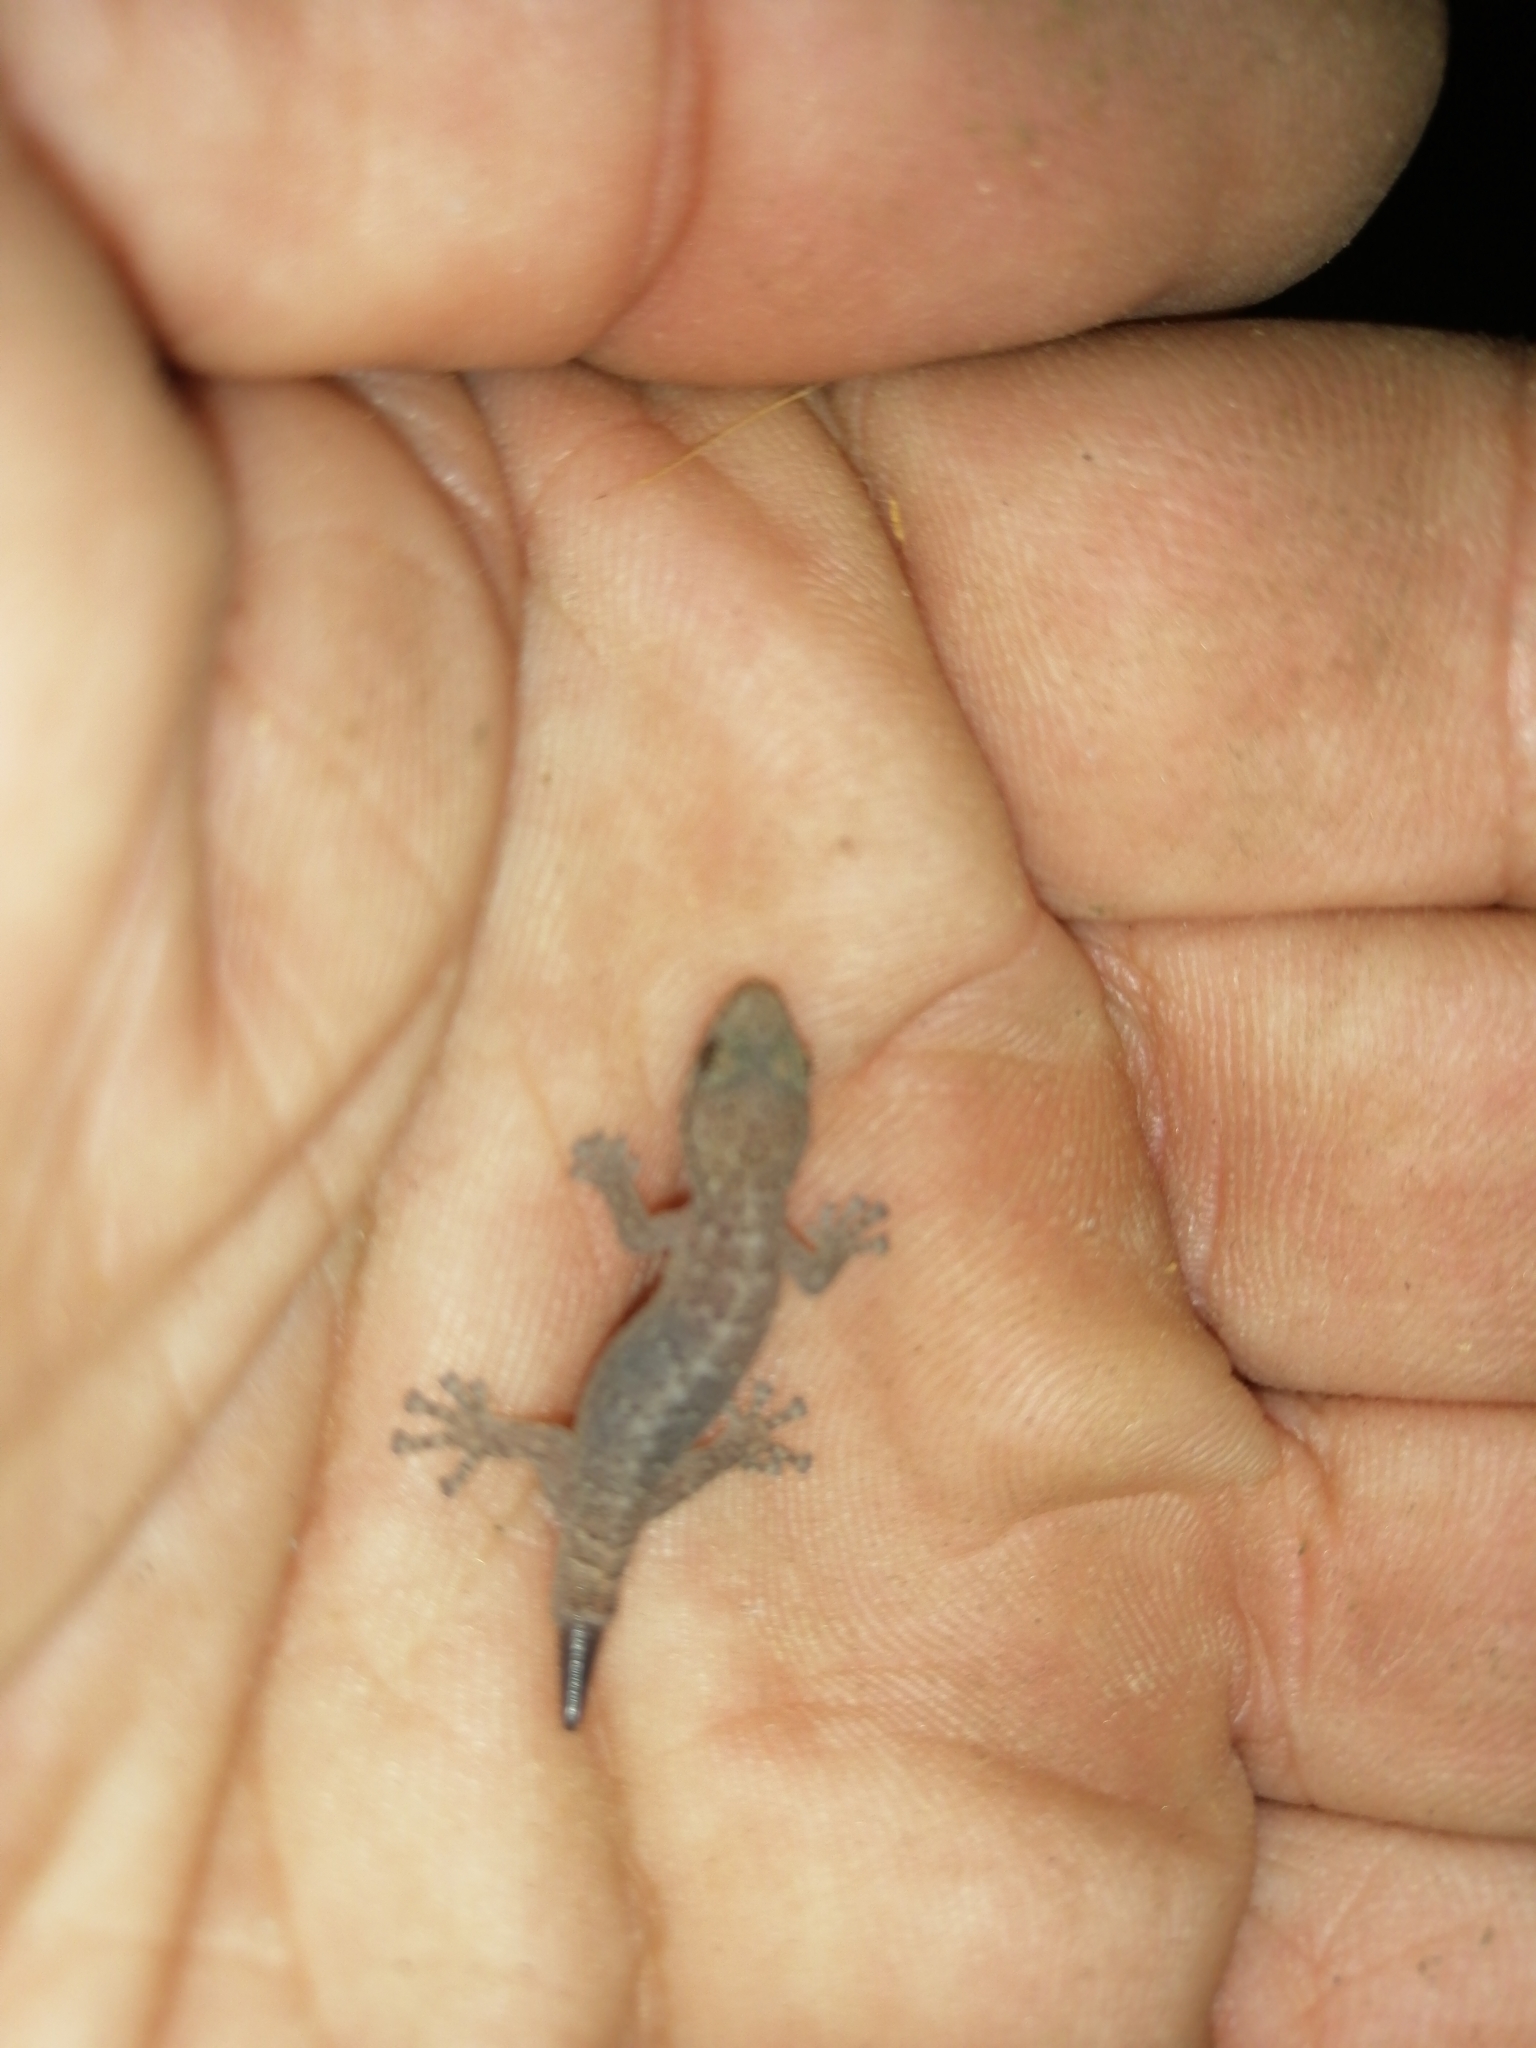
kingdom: Animalia
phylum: Chordata
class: Squamata
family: Gekkonidae
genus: Afrogecko
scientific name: Afrogecko porphyreus
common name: Marbled leaf-toed gecko
